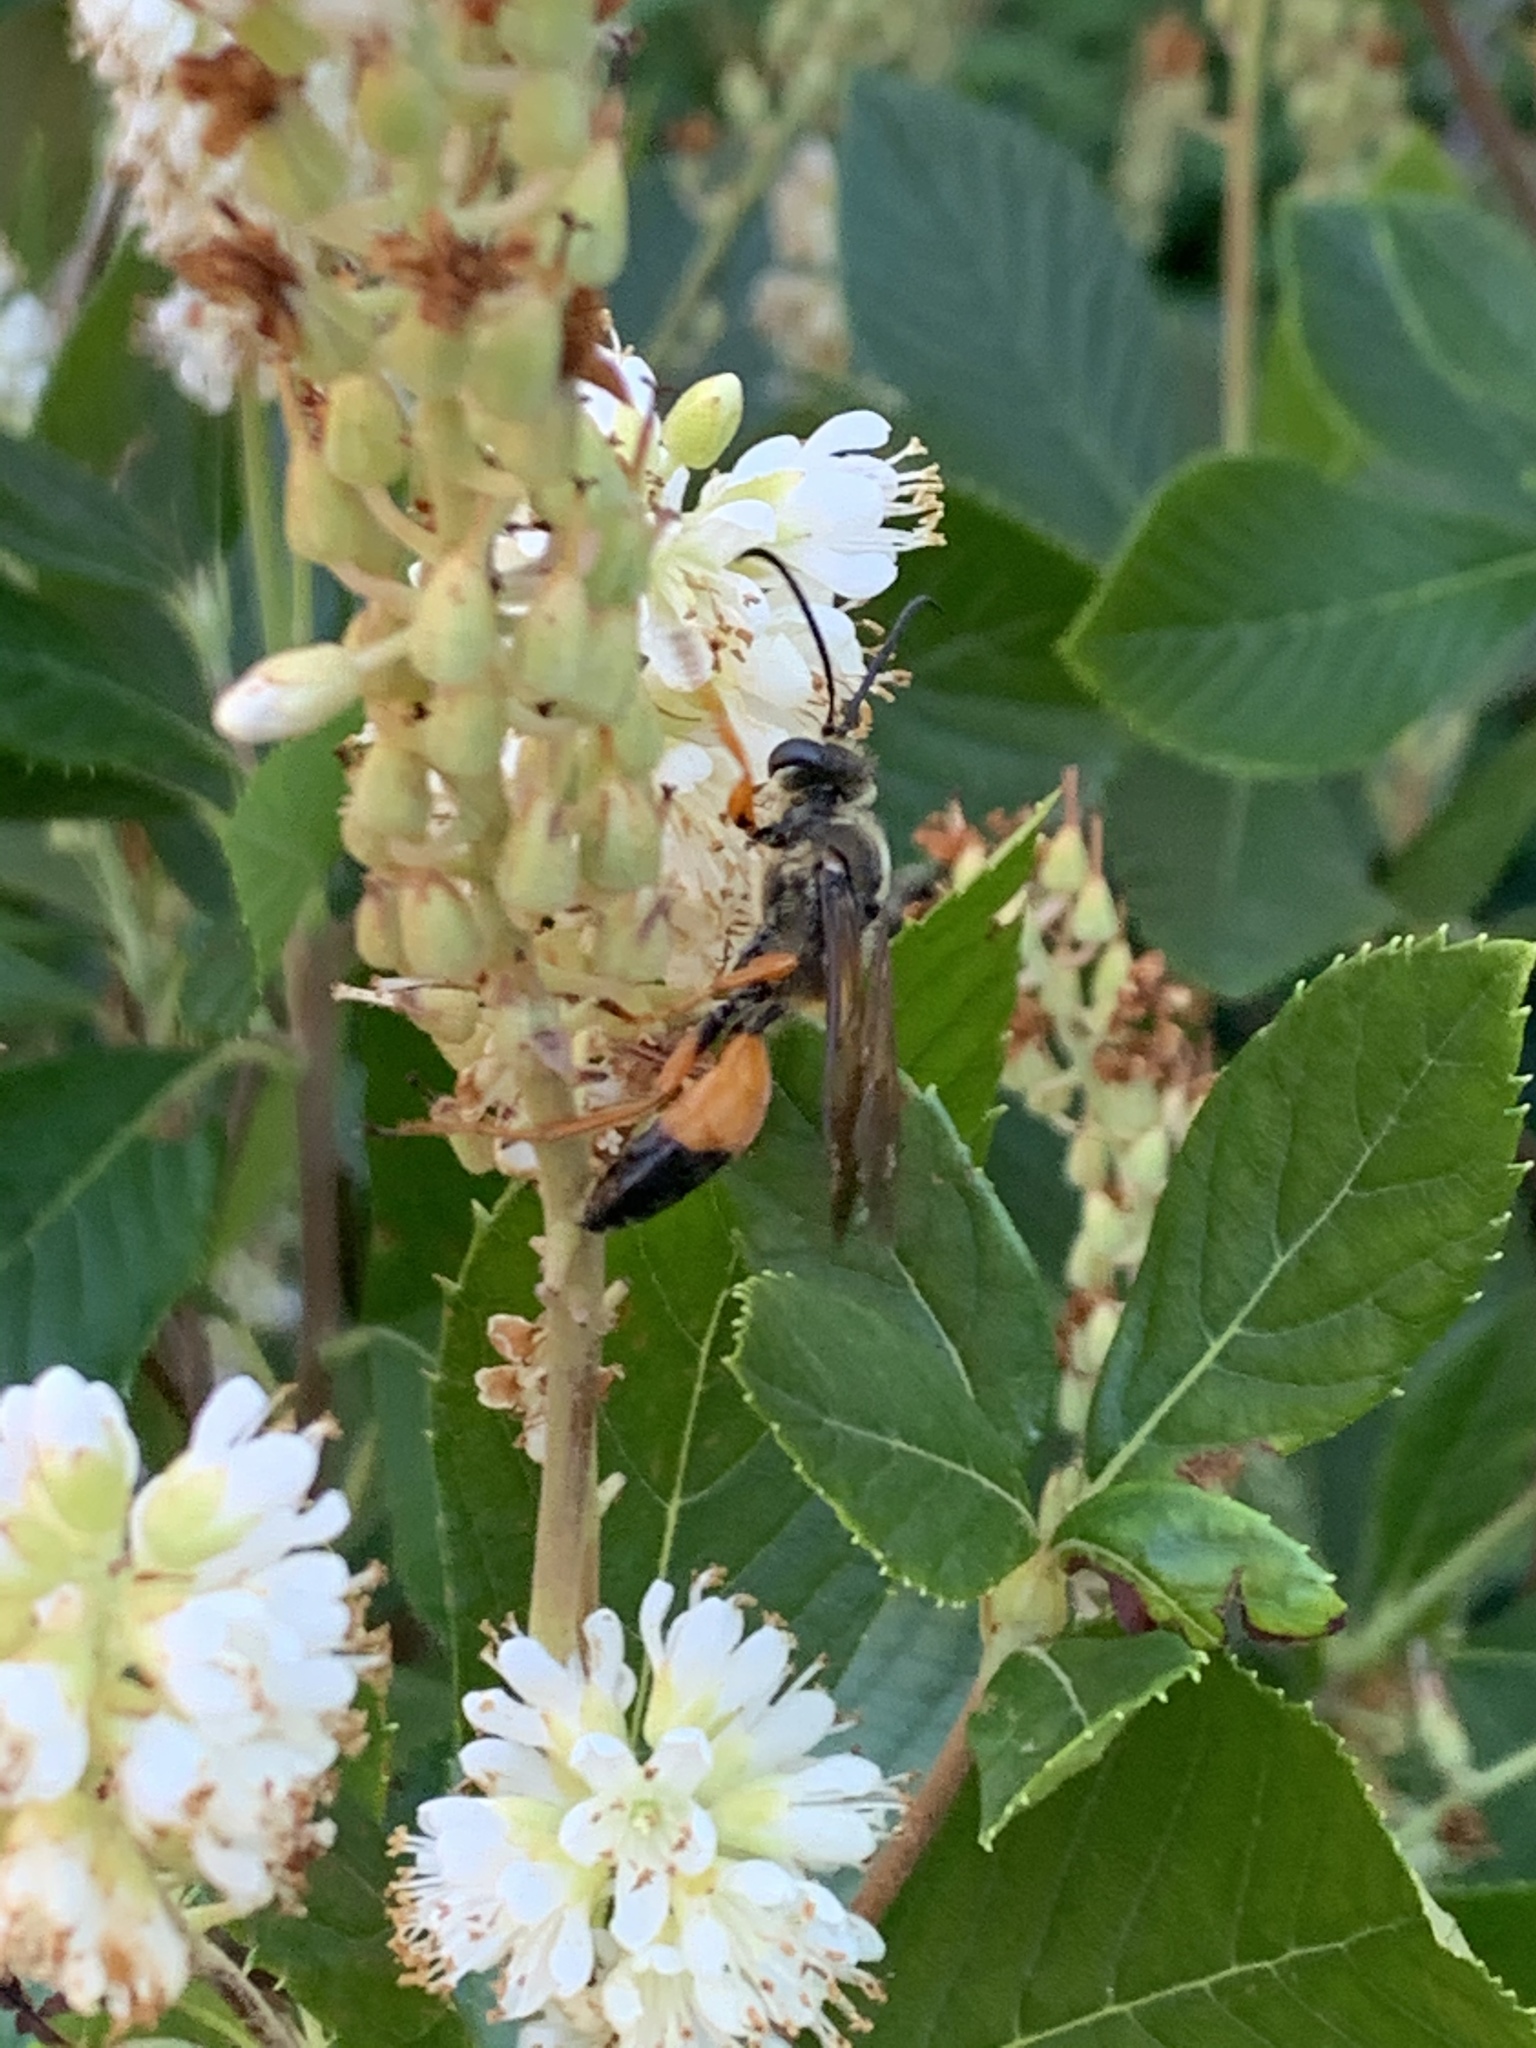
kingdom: Animalia
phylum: Arthropoda
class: Insecta
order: Hymenoptera
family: Sphecidae
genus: Sphex
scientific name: Sphex ichneumoneus
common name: Great golden digger wasp
